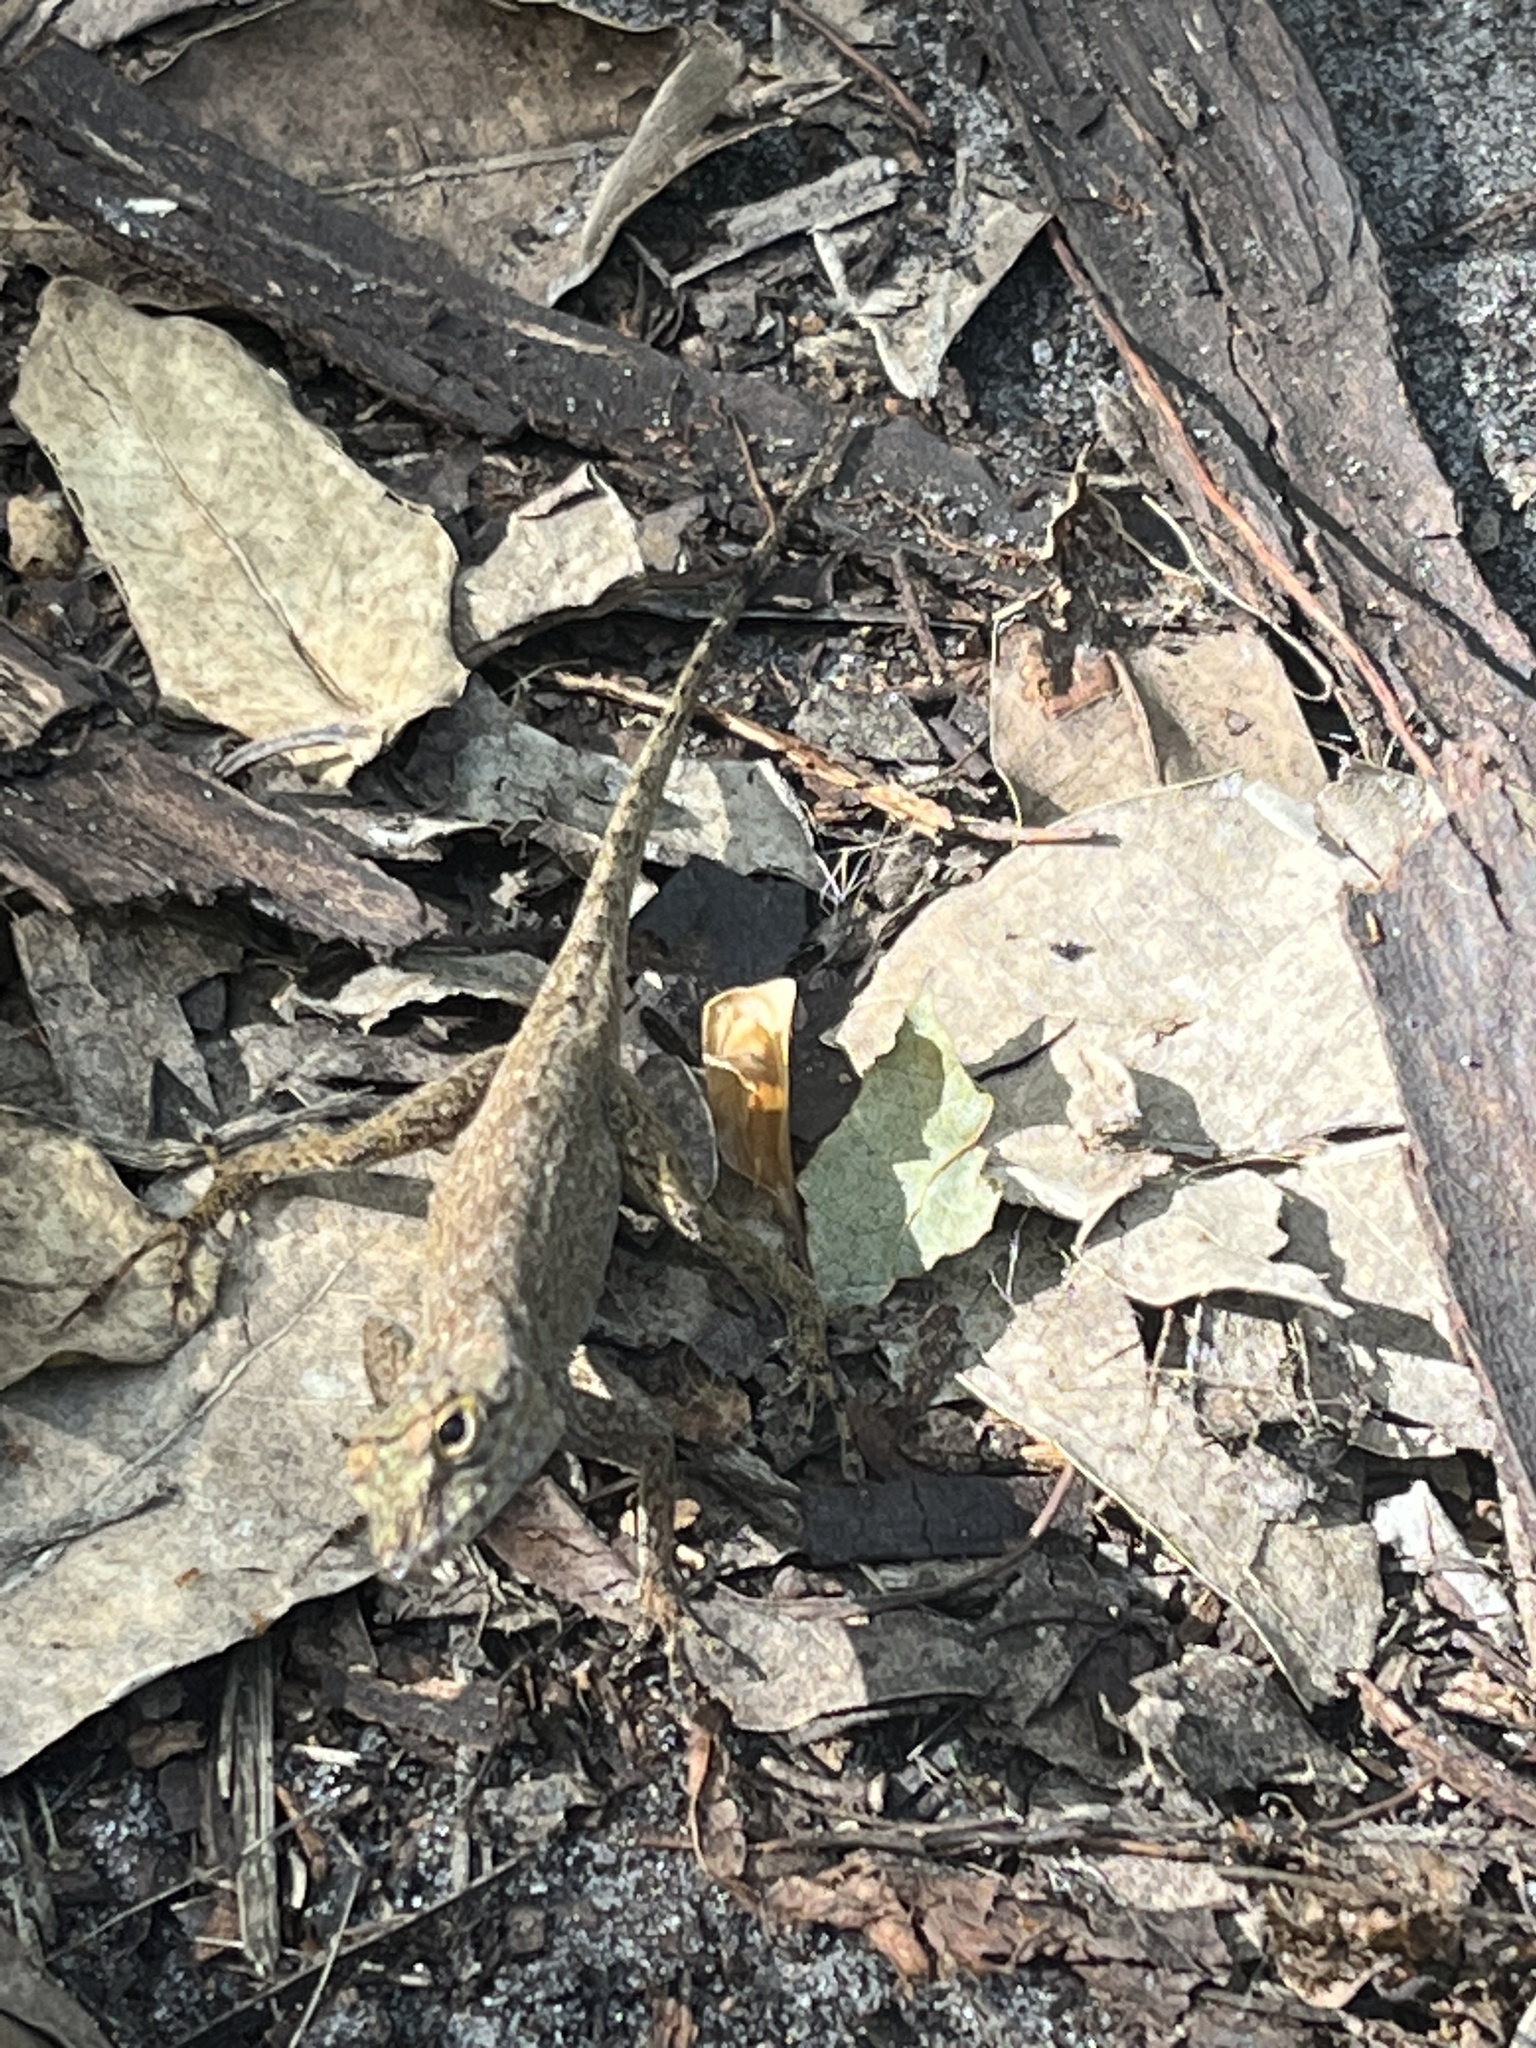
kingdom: Animalia
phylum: Chordata
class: Squamata
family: Dactyloidae
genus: Anolis
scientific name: Anolis distichus
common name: Bark anole
